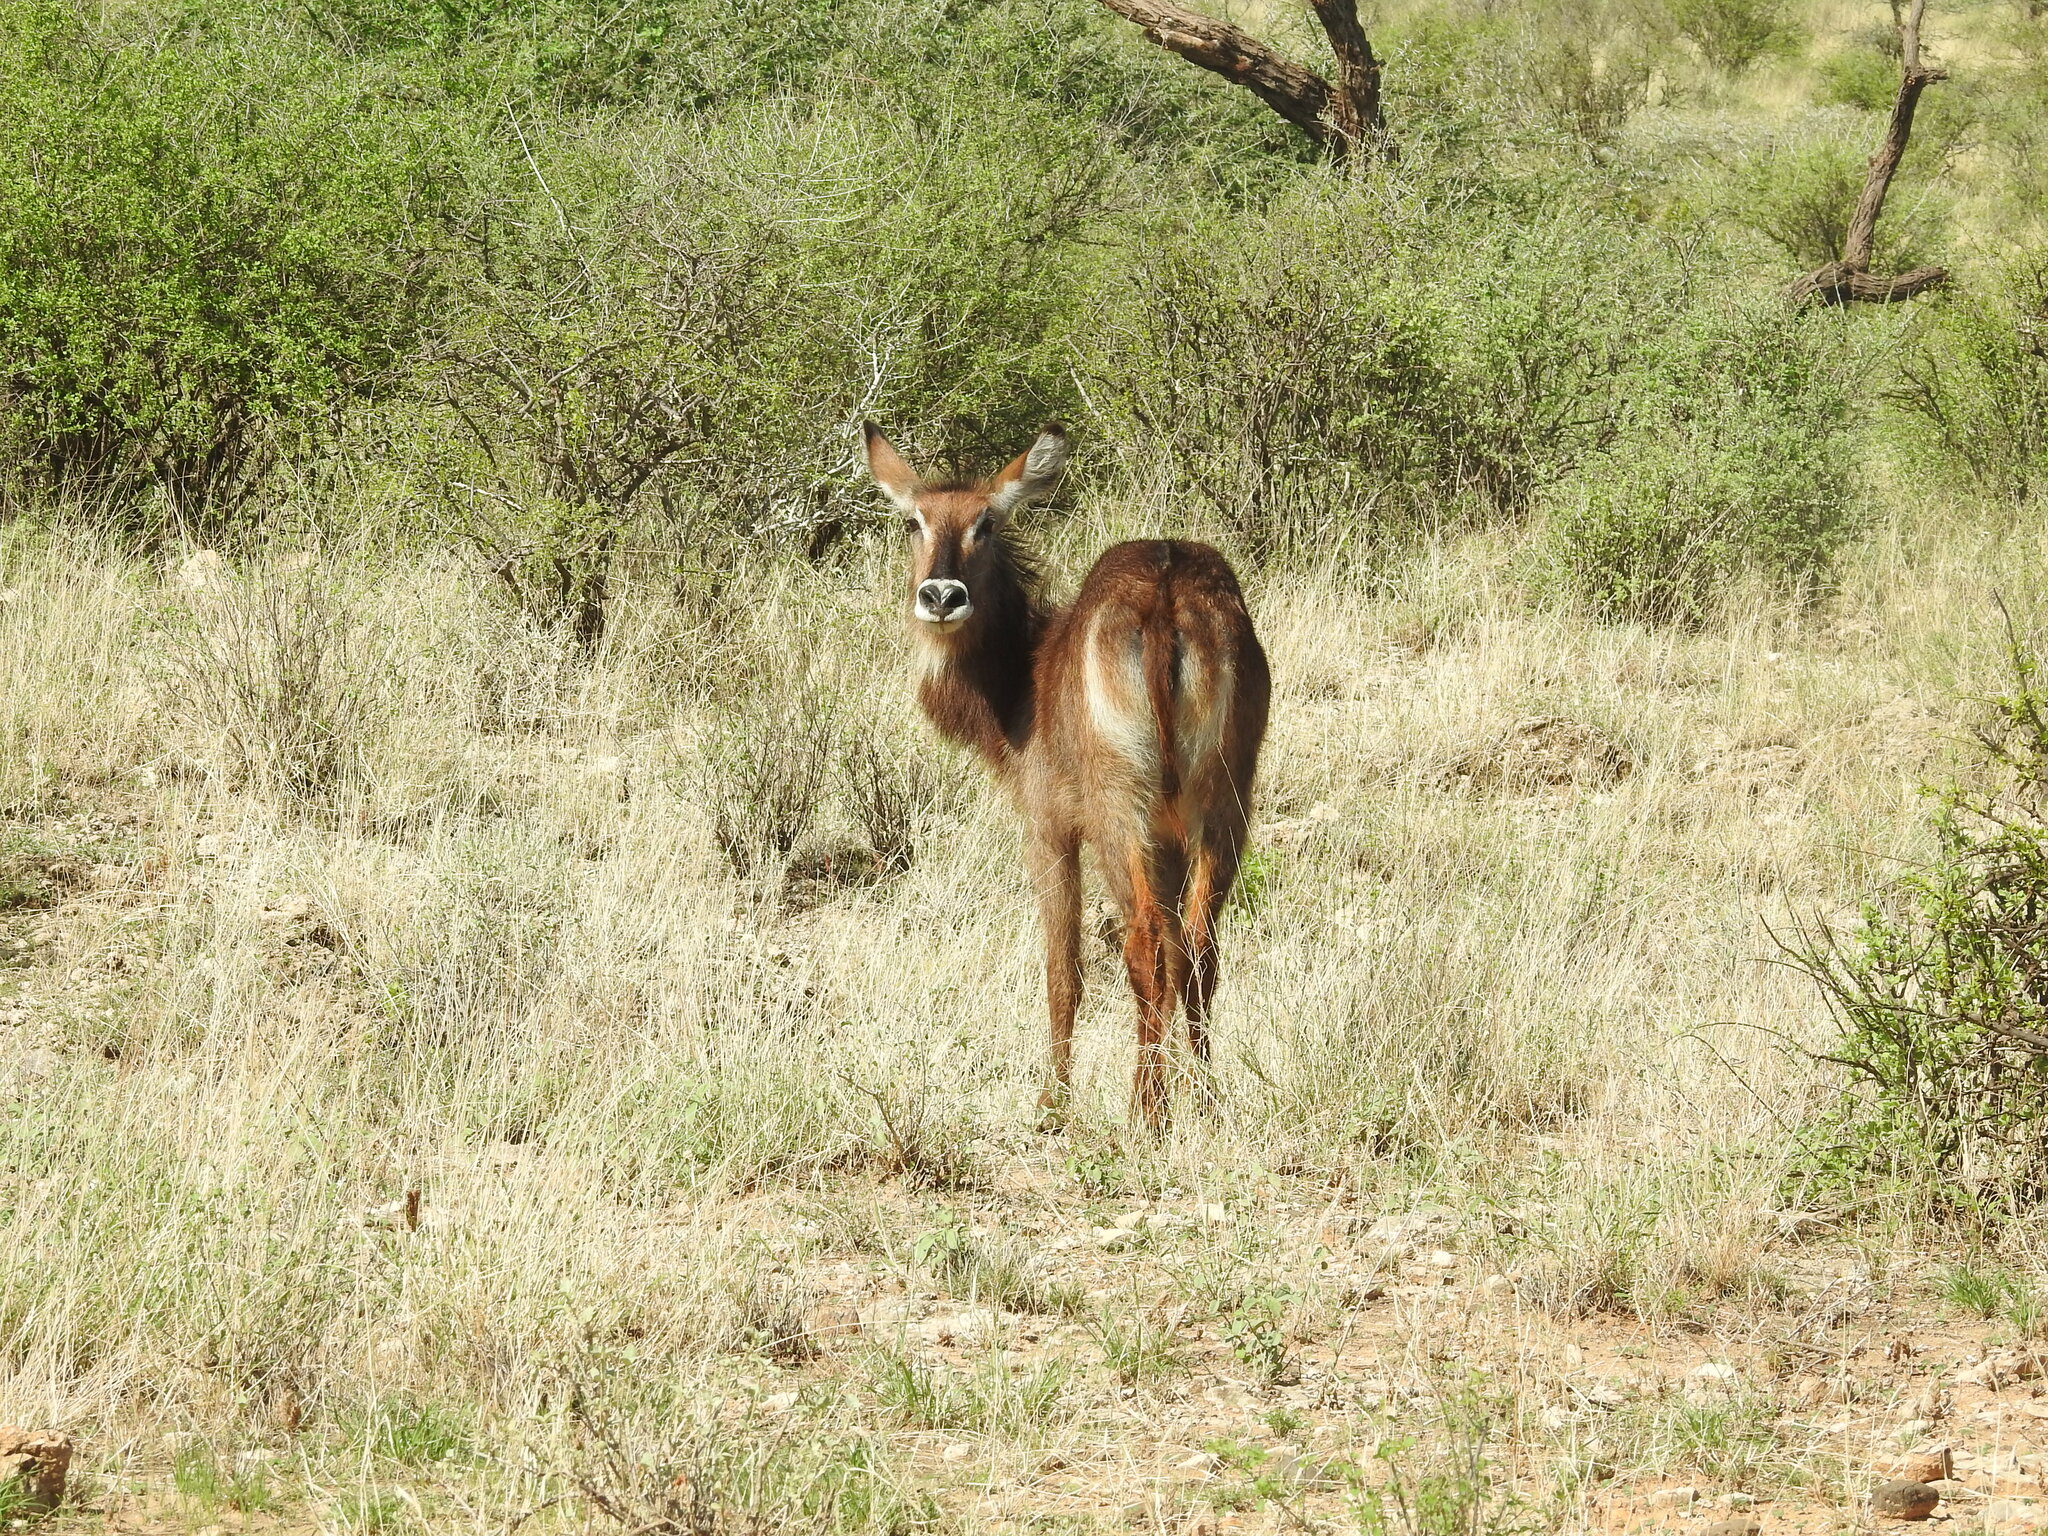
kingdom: Animalia
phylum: Chordata
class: Mammalia
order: Artiodactyla
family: Bovidae
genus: Kobus
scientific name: Kobus ellipsiprymnus
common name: Waterbuck
